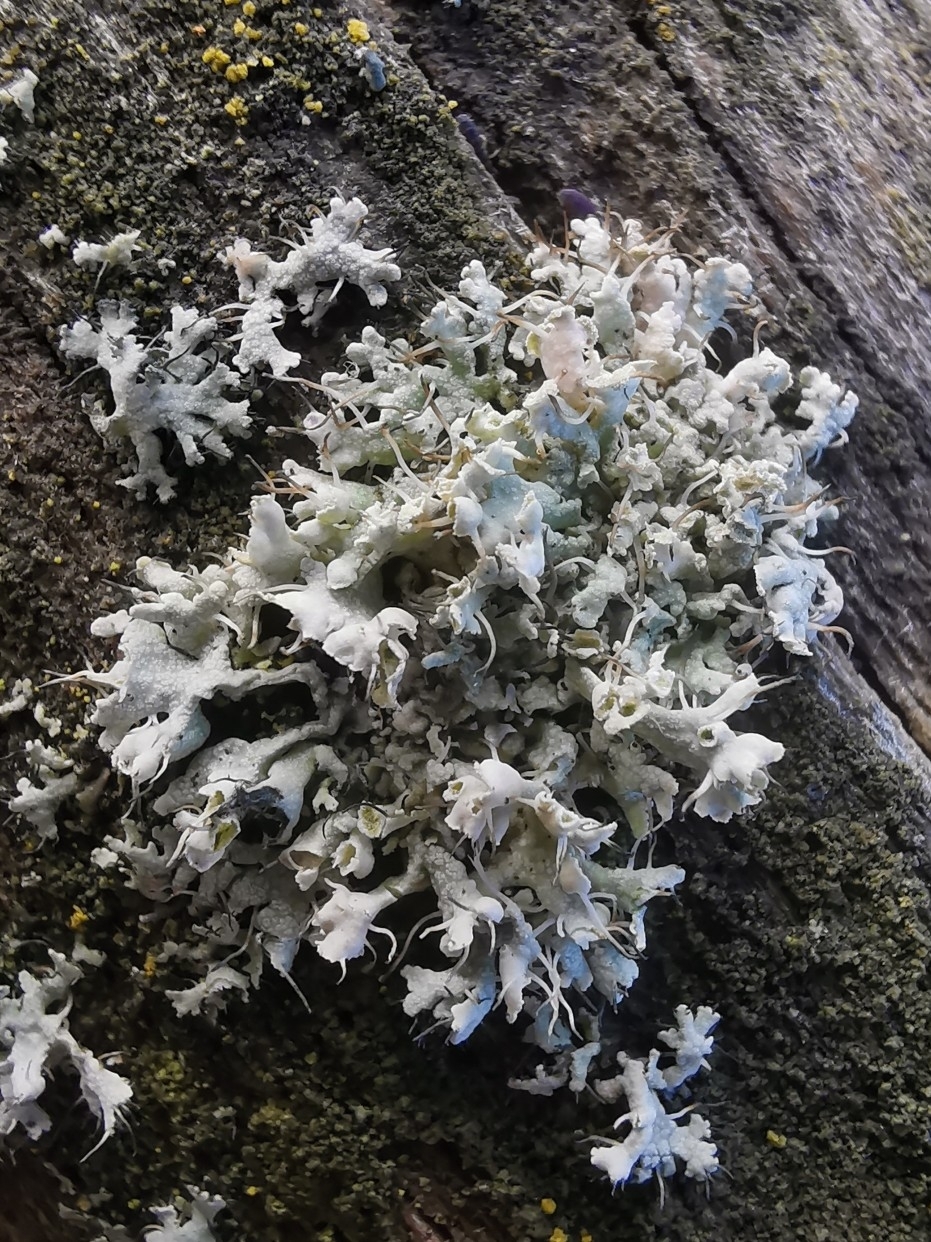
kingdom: Fungi
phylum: Ascomycota
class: Lecanoromycetes
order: Caliciales
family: Physciaceae
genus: Physcia
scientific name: Physcia adscendens
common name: Hooded rosette lichen
